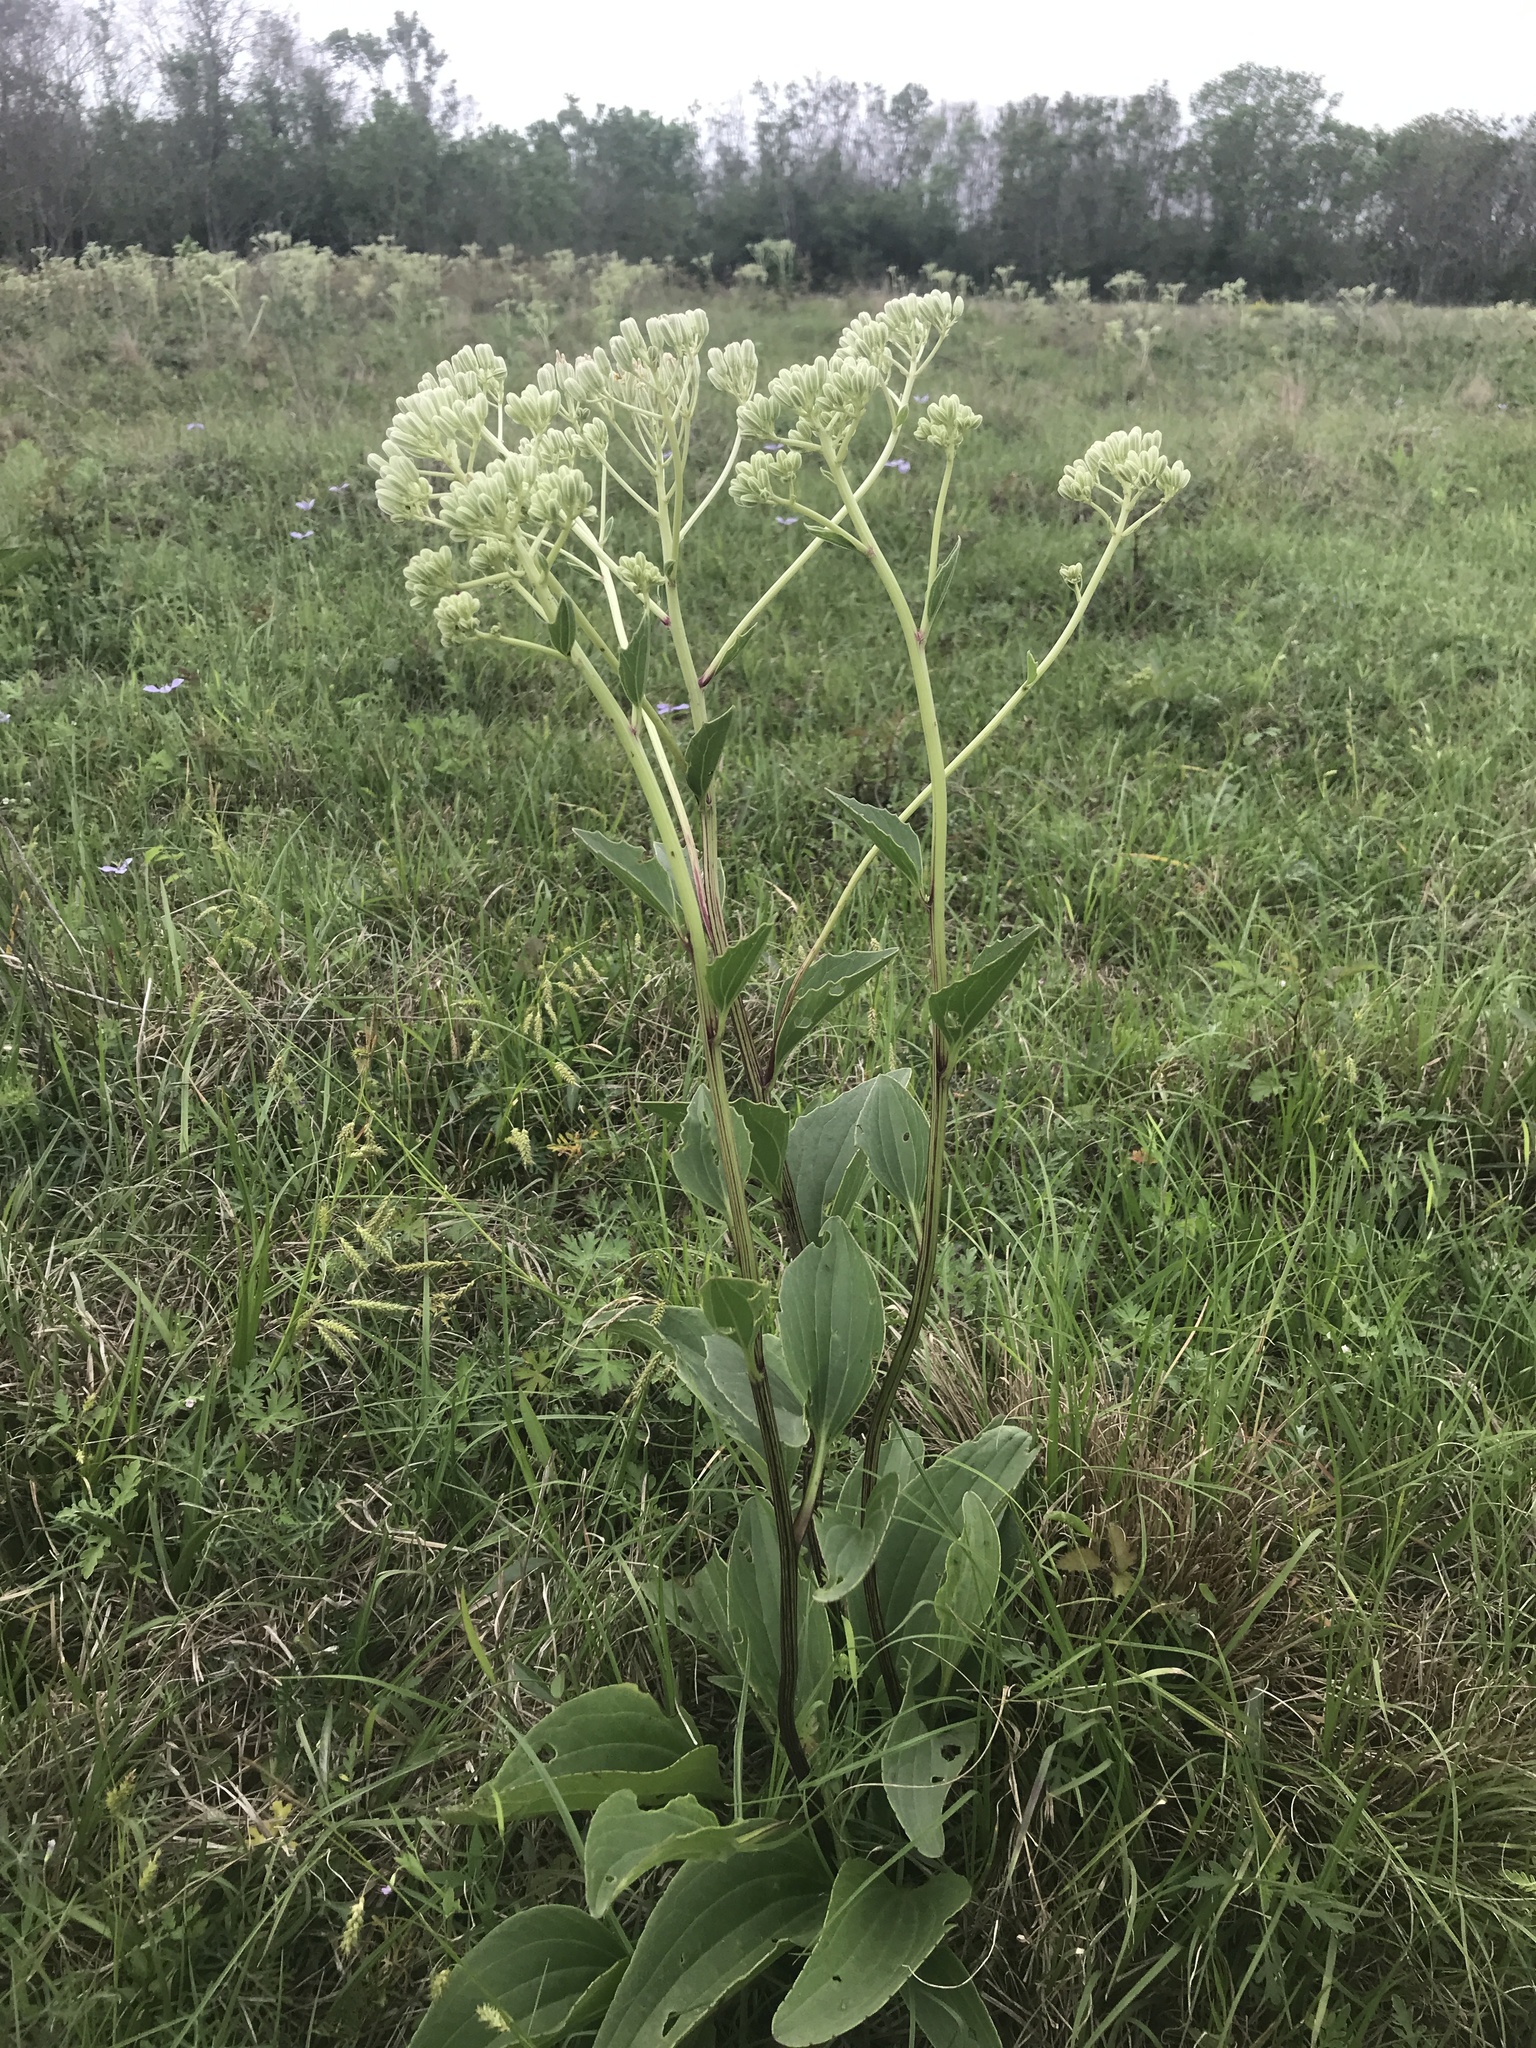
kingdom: Plantae
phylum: Tracheophyta
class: Magnoliopsida
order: Asterales
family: Asteraceae
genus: Arnoglossum
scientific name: Arnoglossum plantagineum
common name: Groove-stemmed indian-plantain
